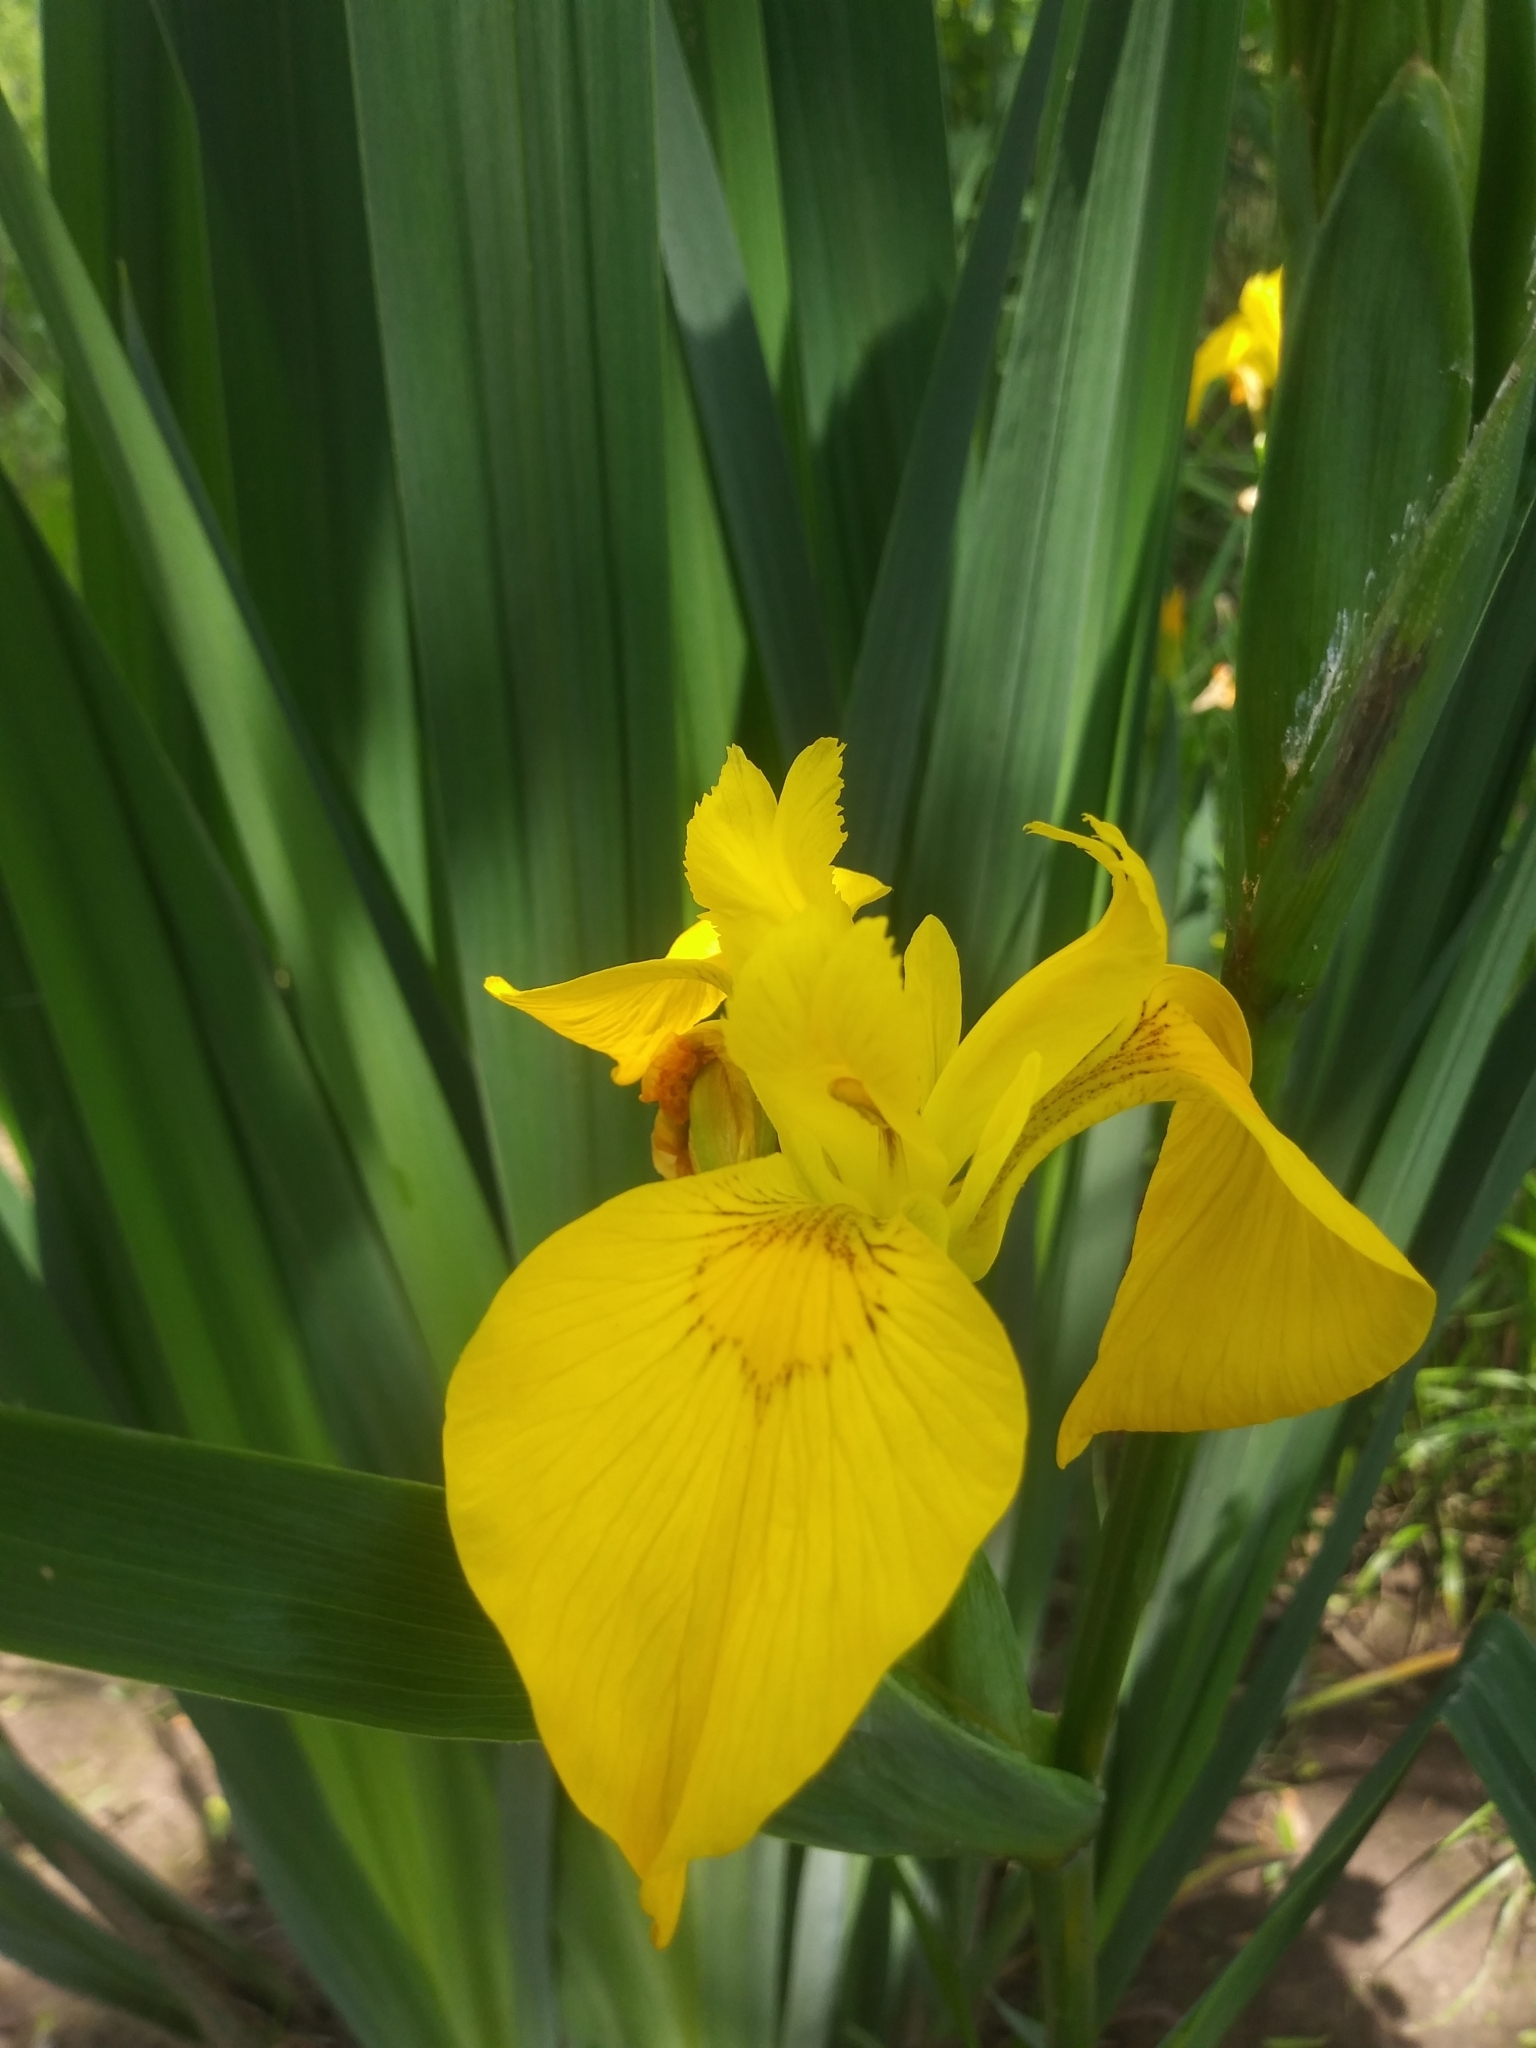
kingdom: Plantae
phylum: Tracheophyta
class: Liliopsida
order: Asparagales
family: Iridaceae
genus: Iris
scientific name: Iris pseudacorus
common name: Yellow flag
